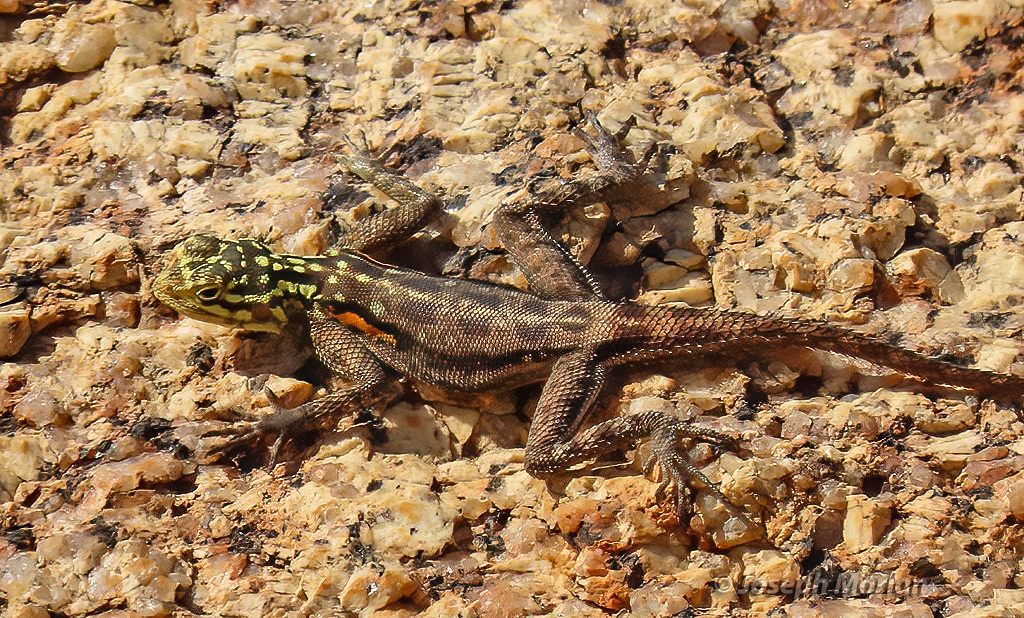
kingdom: Animalia
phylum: Chordata
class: Squamata
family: Agamidae
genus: Agama
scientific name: Agama planiceps
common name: Namib rock agama
